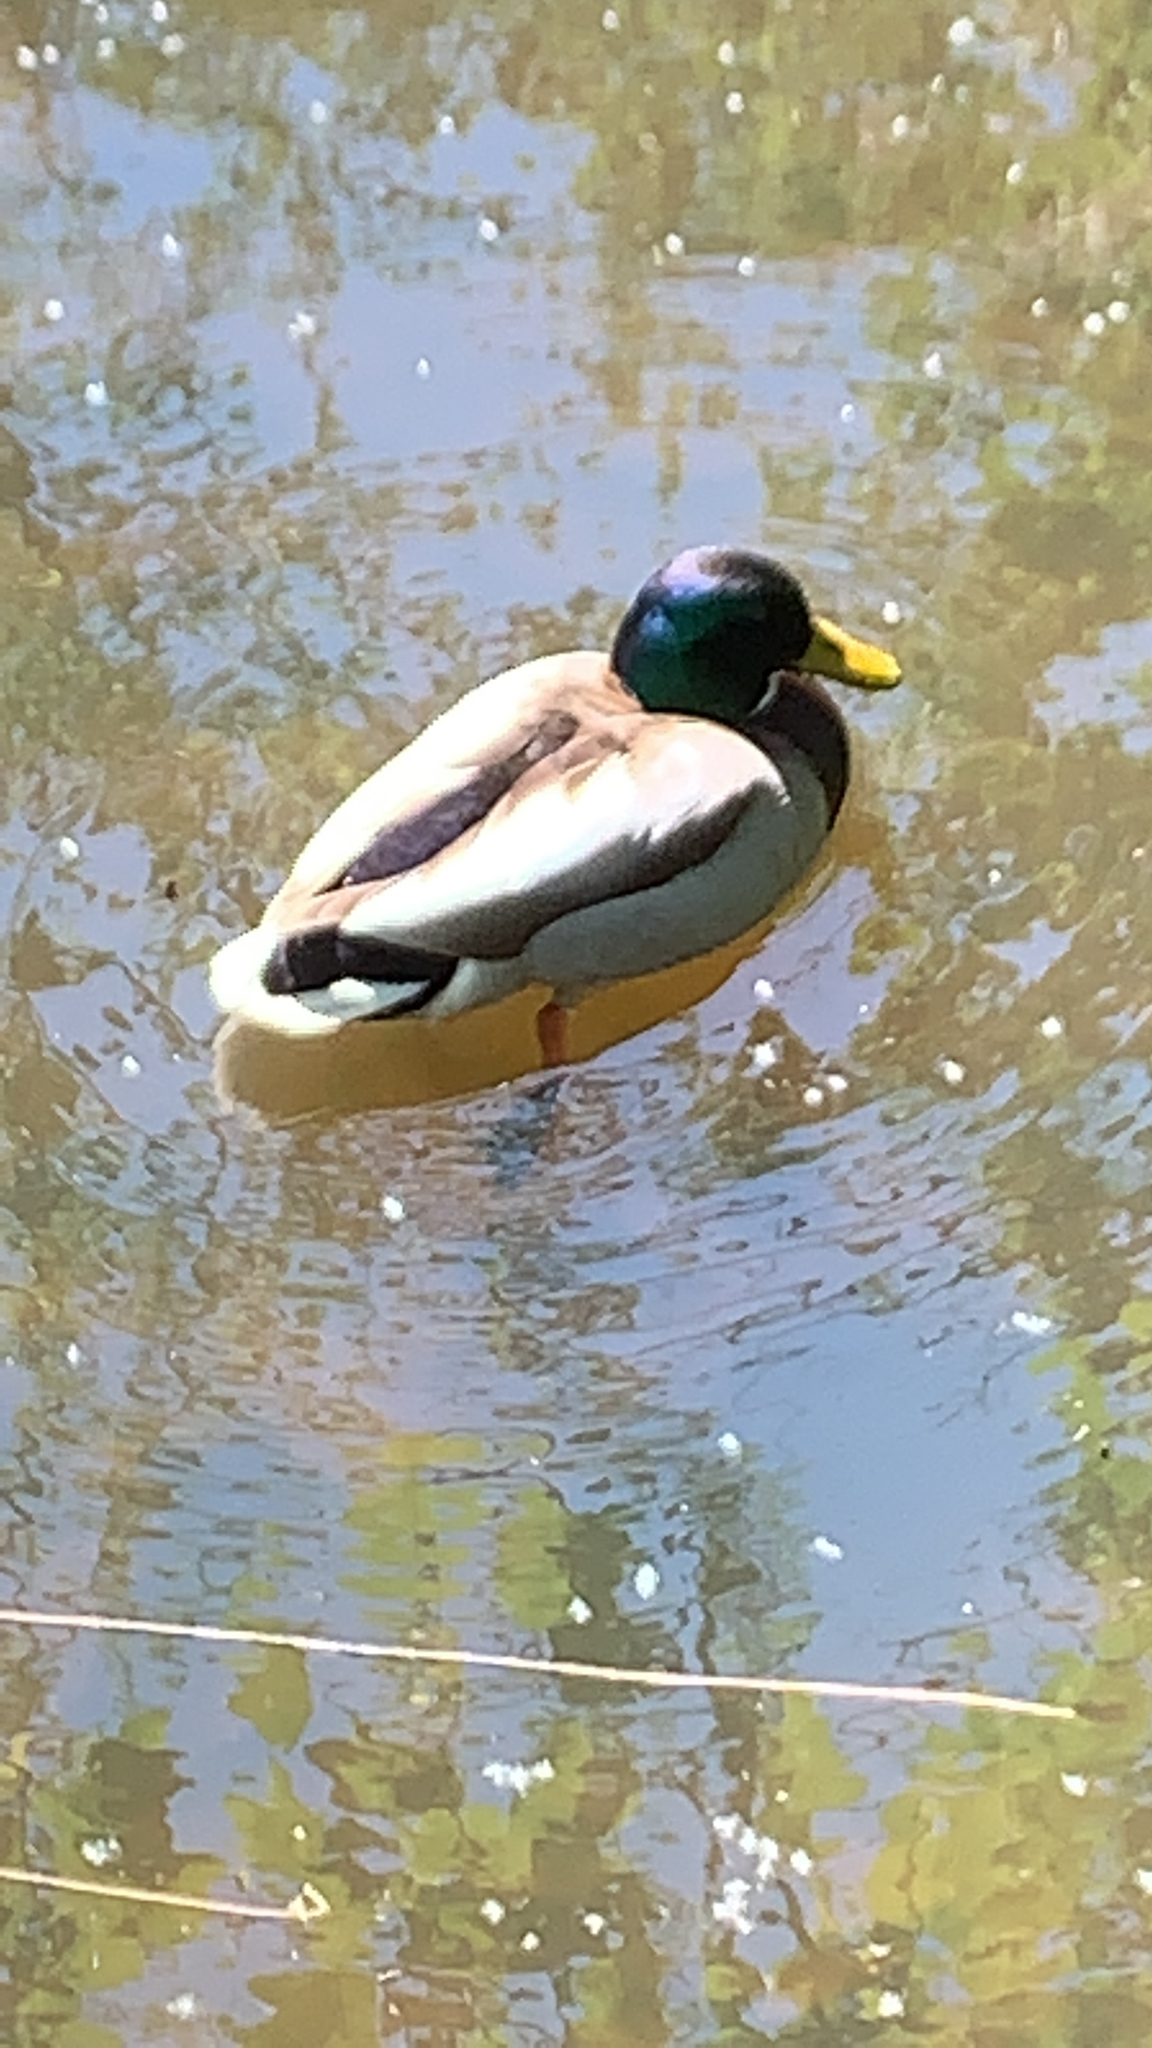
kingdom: Animalia
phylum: Chordata
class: Aves
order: Anseriformes
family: Anatidae
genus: Anas
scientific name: Anas platyrhynchos
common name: Mallard
